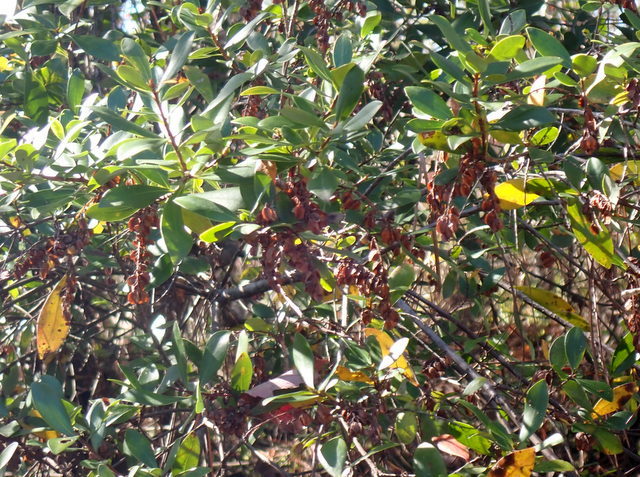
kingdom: Plantae
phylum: Tracheophyta
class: Magnoliopsida
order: Ericales
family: Cyrillaceae
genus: Cliftonia
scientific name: Cliftonia monophylla
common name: Titi
